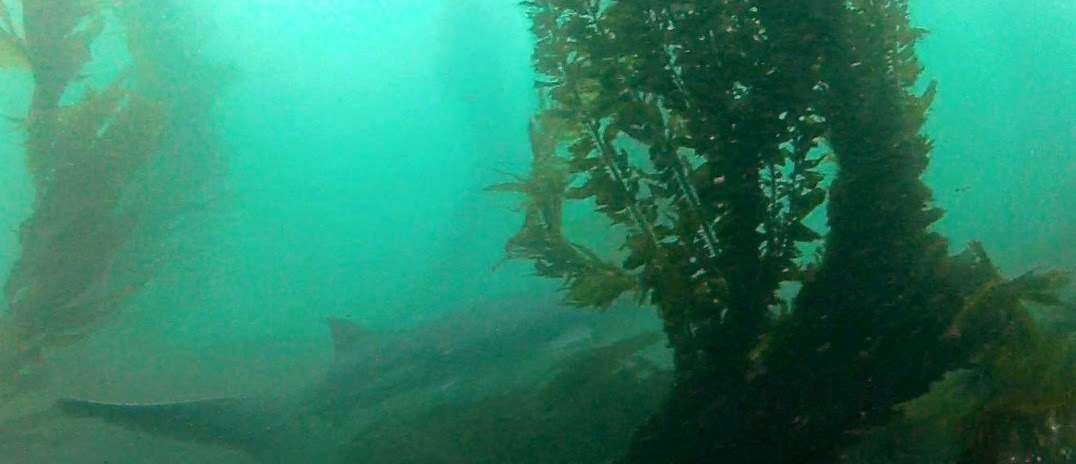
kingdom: Animalia
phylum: Chordata
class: Elasmobranchii
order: Hexanchiformes
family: Hexanchidae
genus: Notorynchus
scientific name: Notorynchus cepedianus
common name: Broadnose sevengill shark
